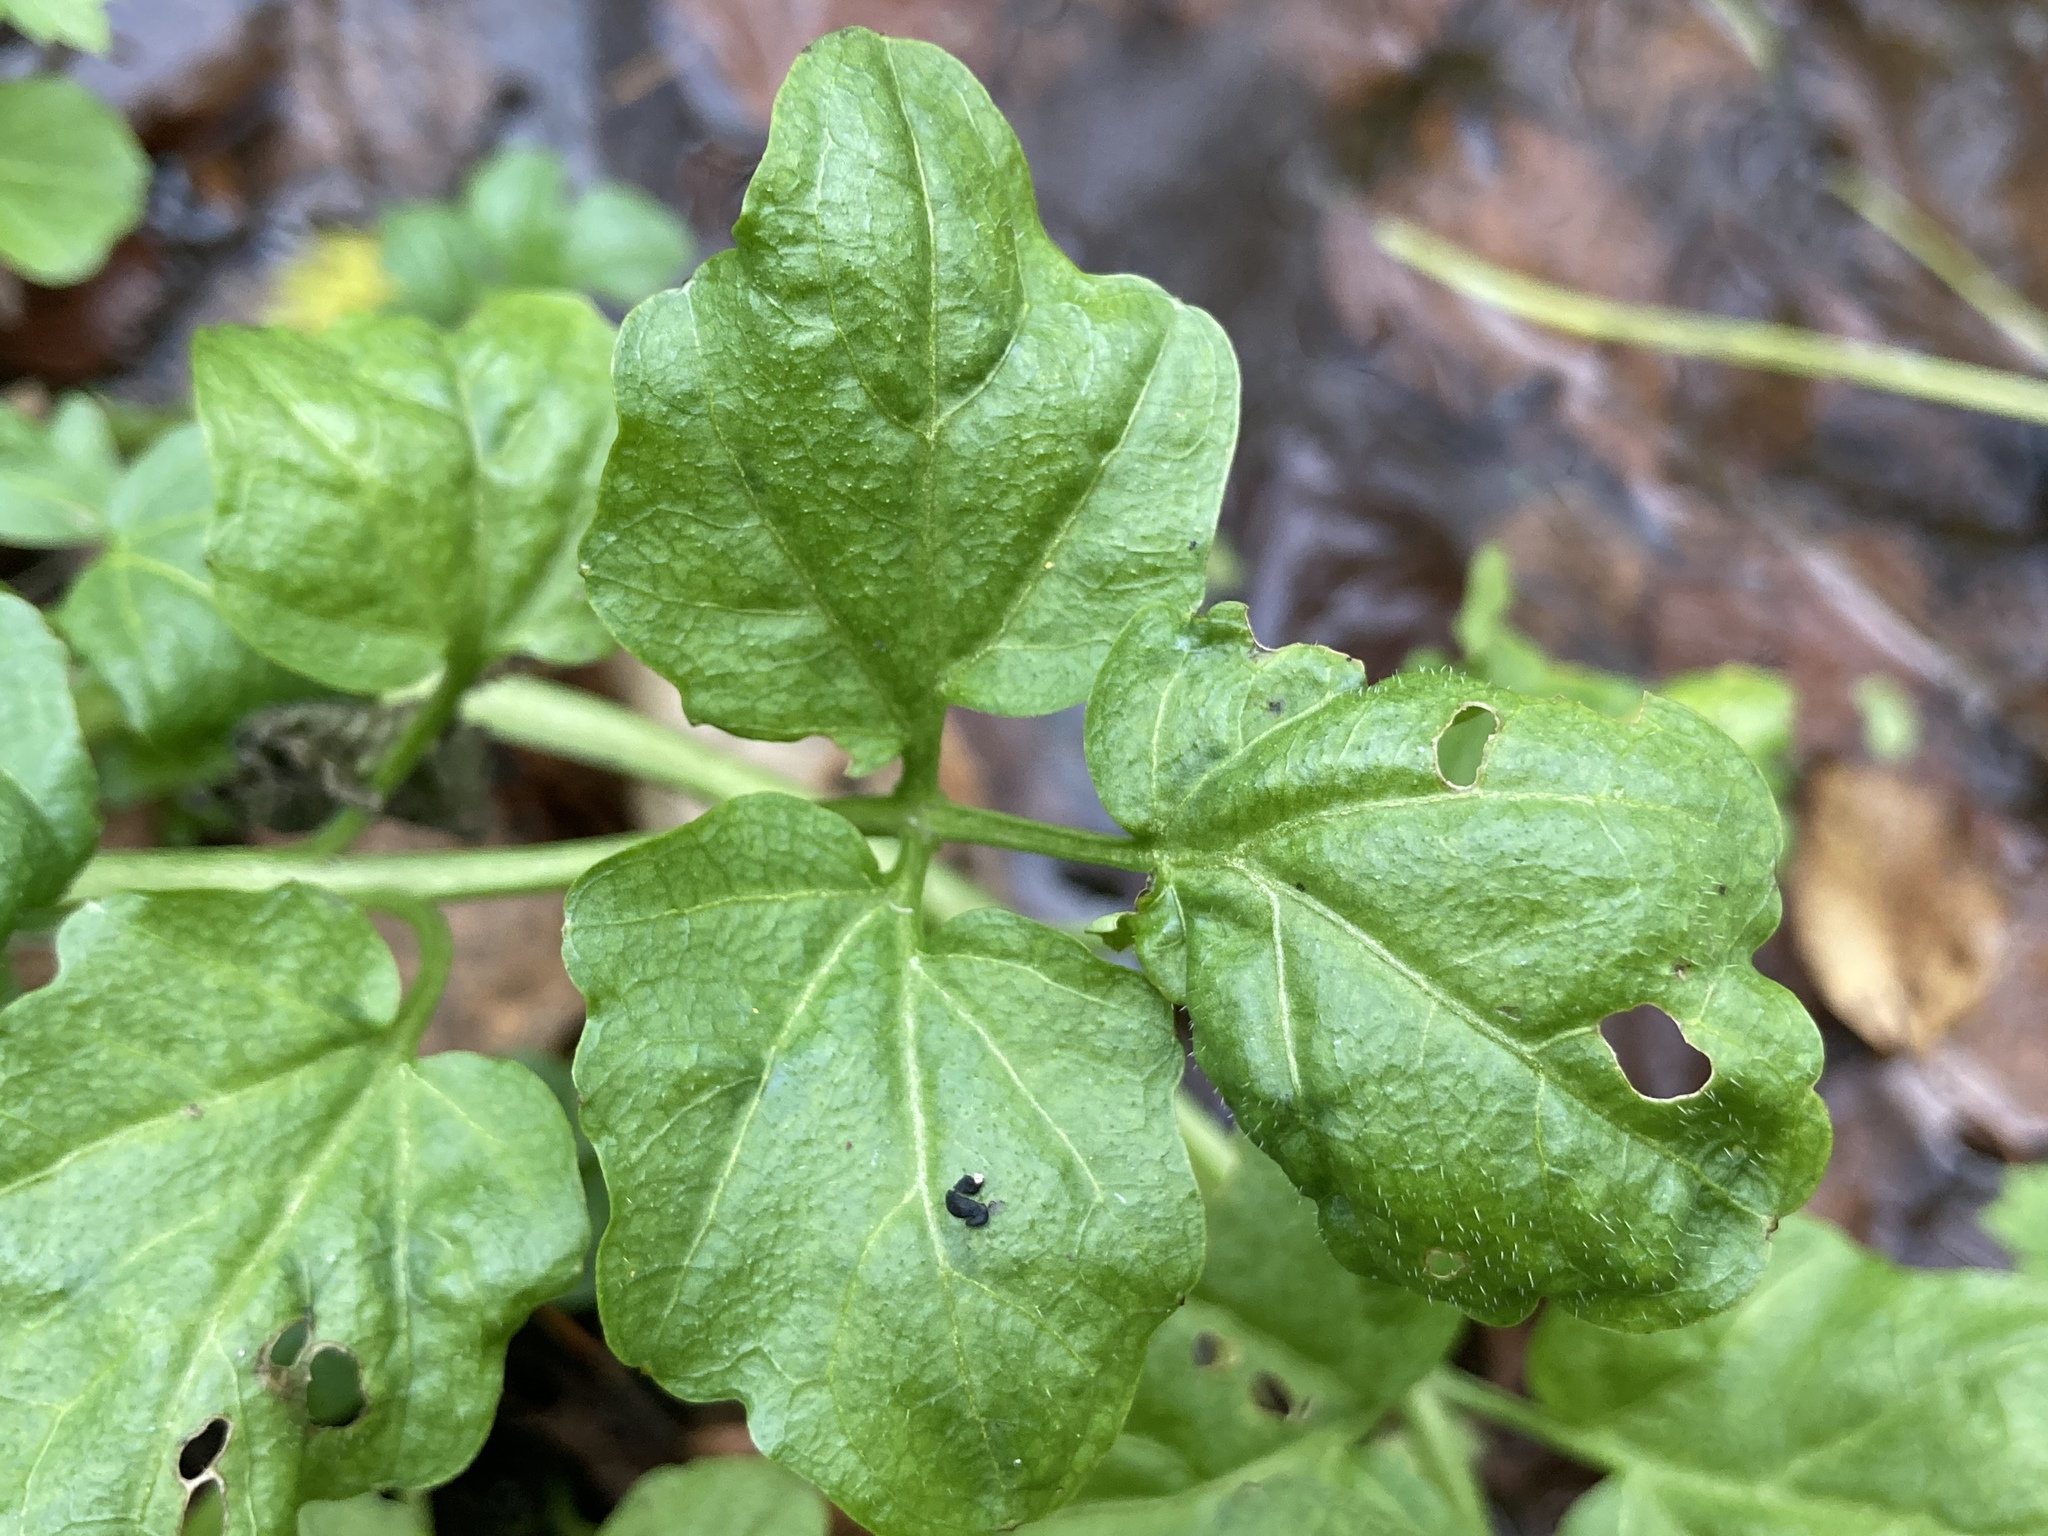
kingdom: Plantae
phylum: Tracheophyta
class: Magnoliopsida
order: Brassicales
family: Brassicaceae
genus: Cardamine
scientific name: Cardamine amara
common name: Large bitter-cress
